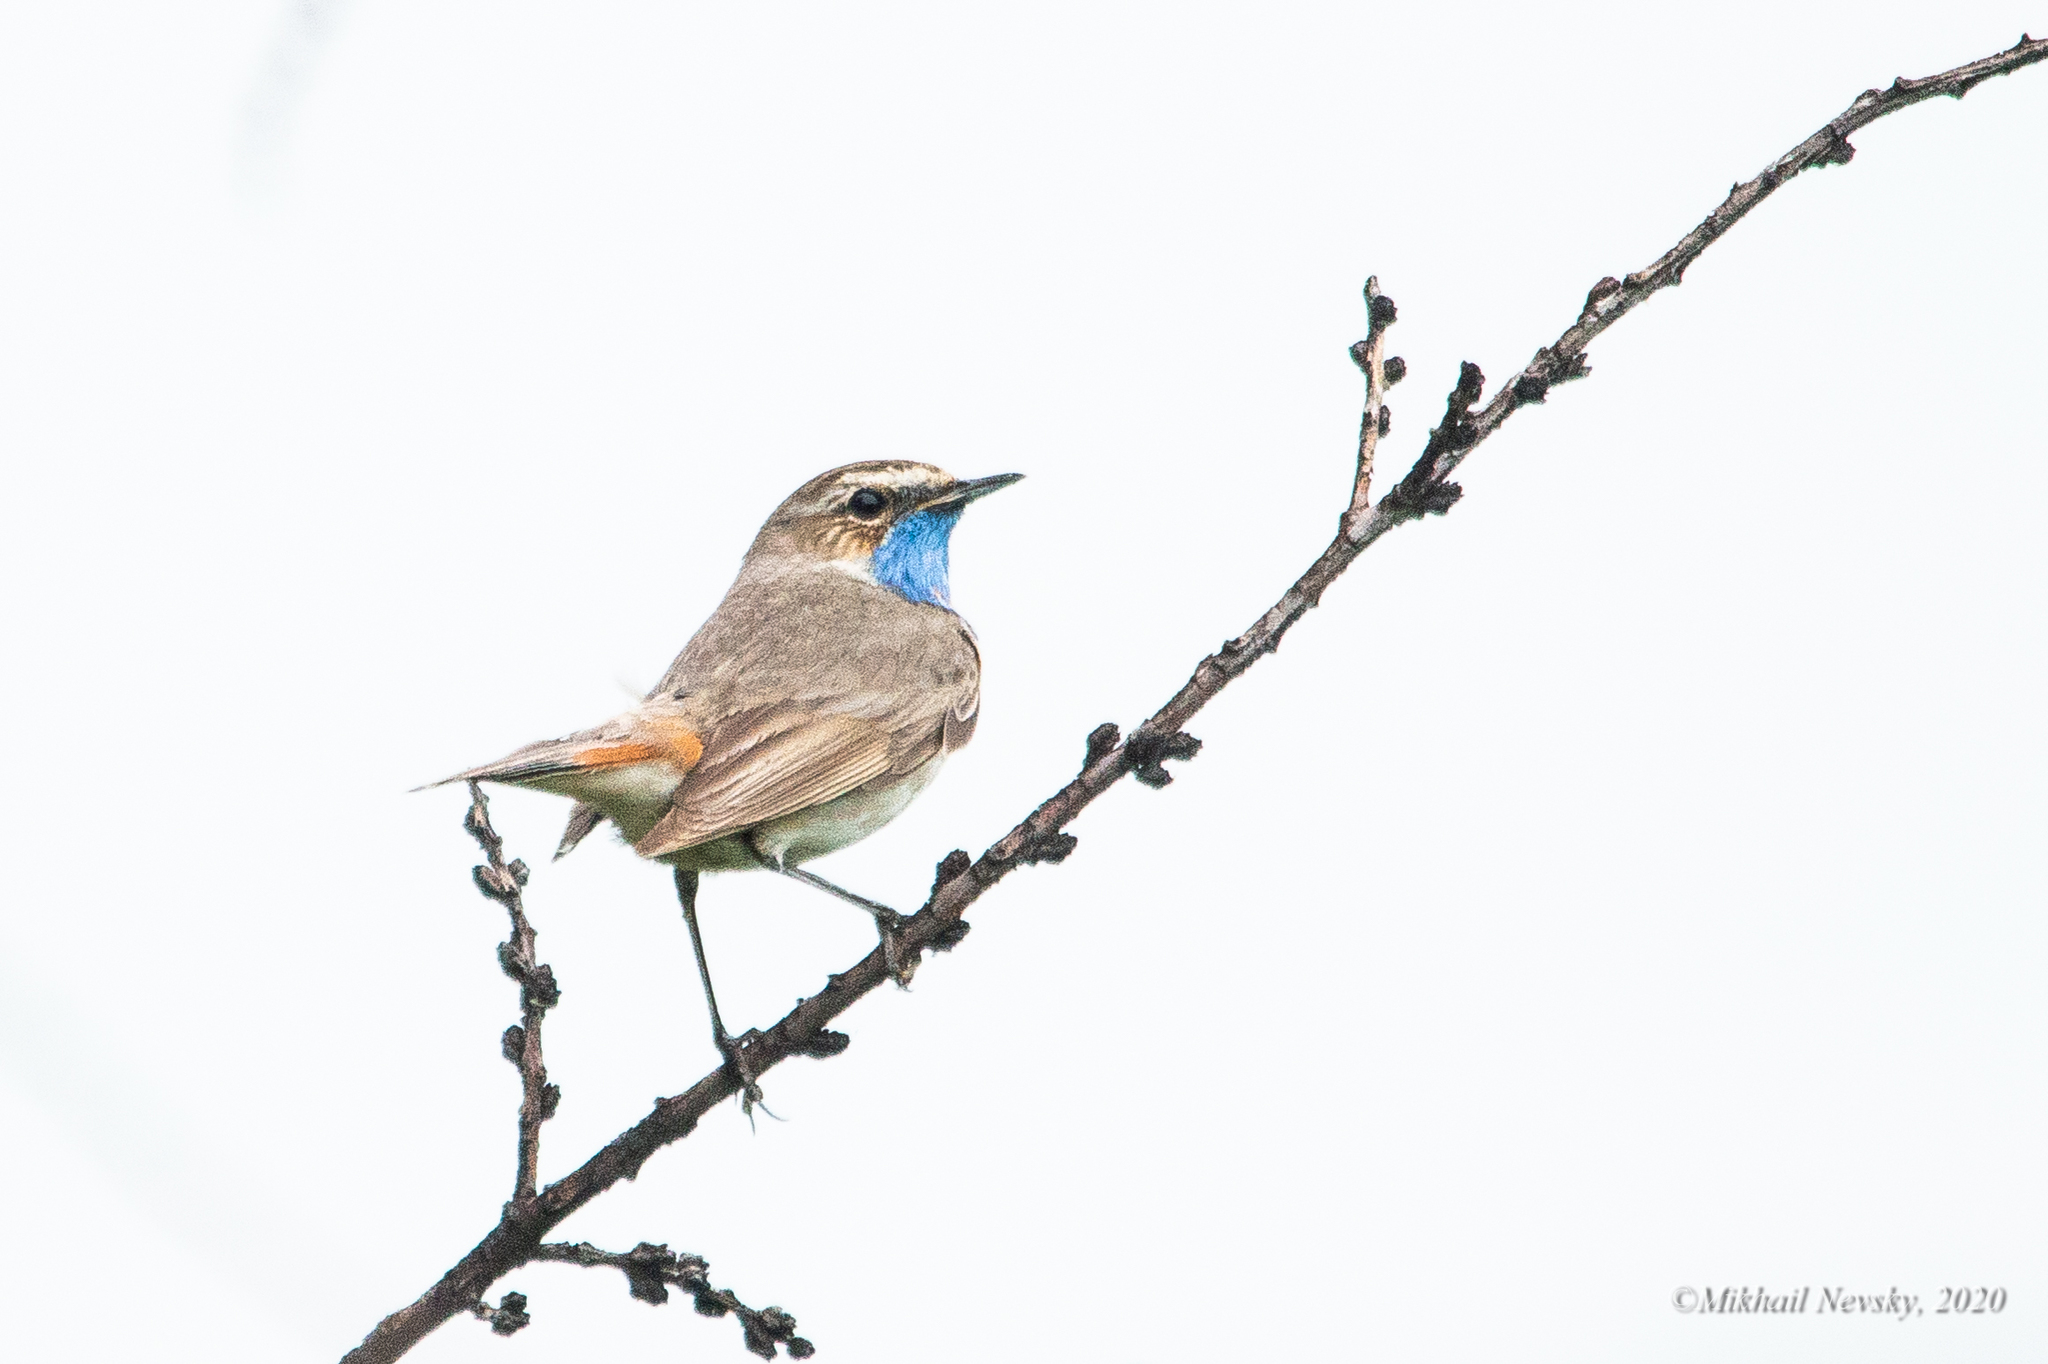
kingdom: Animalia
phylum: Chordata
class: Aves
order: Passeriformes
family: Muscicapidae
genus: Luscinia
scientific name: Luscinia svecica
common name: Bluethroat
